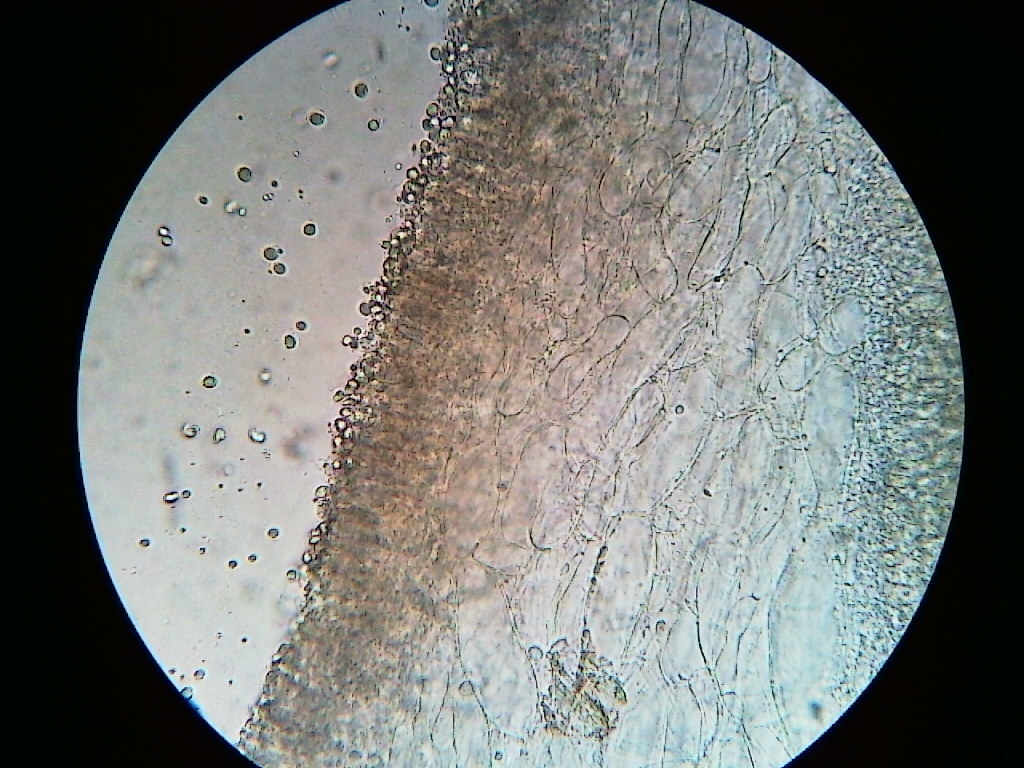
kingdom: Fungi
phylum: Basidiomycota
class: Agaricomycetes
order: Agaricales
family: Mycenaceae
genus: Mycena
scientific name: Mycena inclinata
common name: Clustered bonnet
